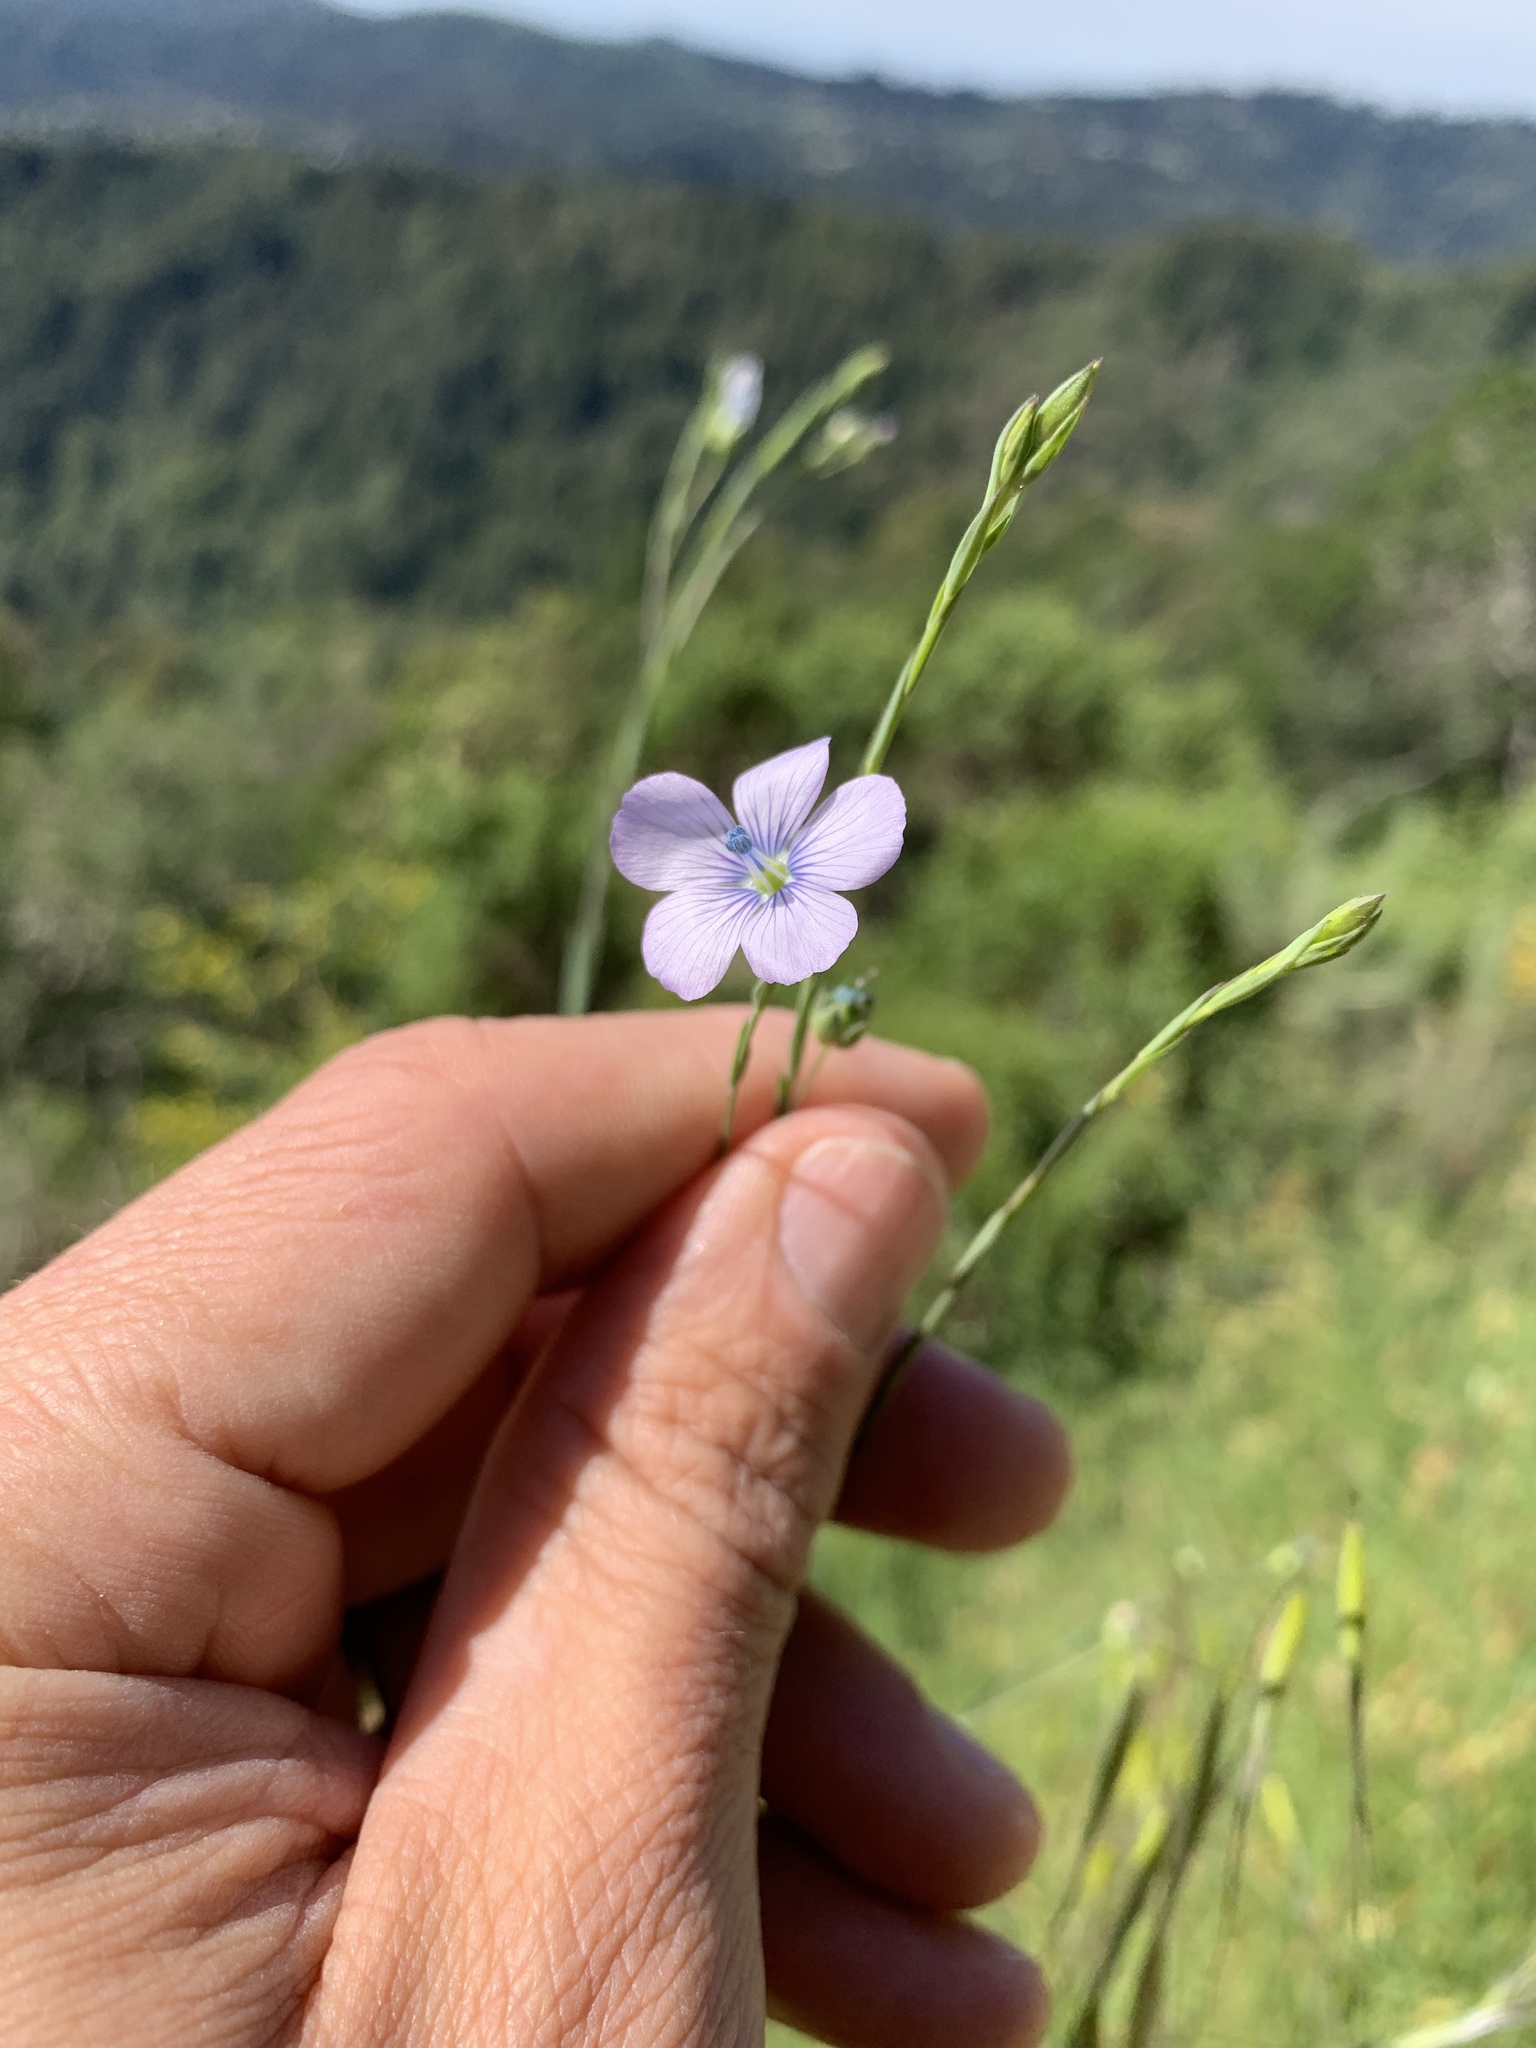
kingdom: Plantae
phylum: Tracheophyta
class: Magnoliopsida
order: Malpighiales
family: Linaceae
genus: Linum
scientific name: Linum bienne
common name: Pale flax
